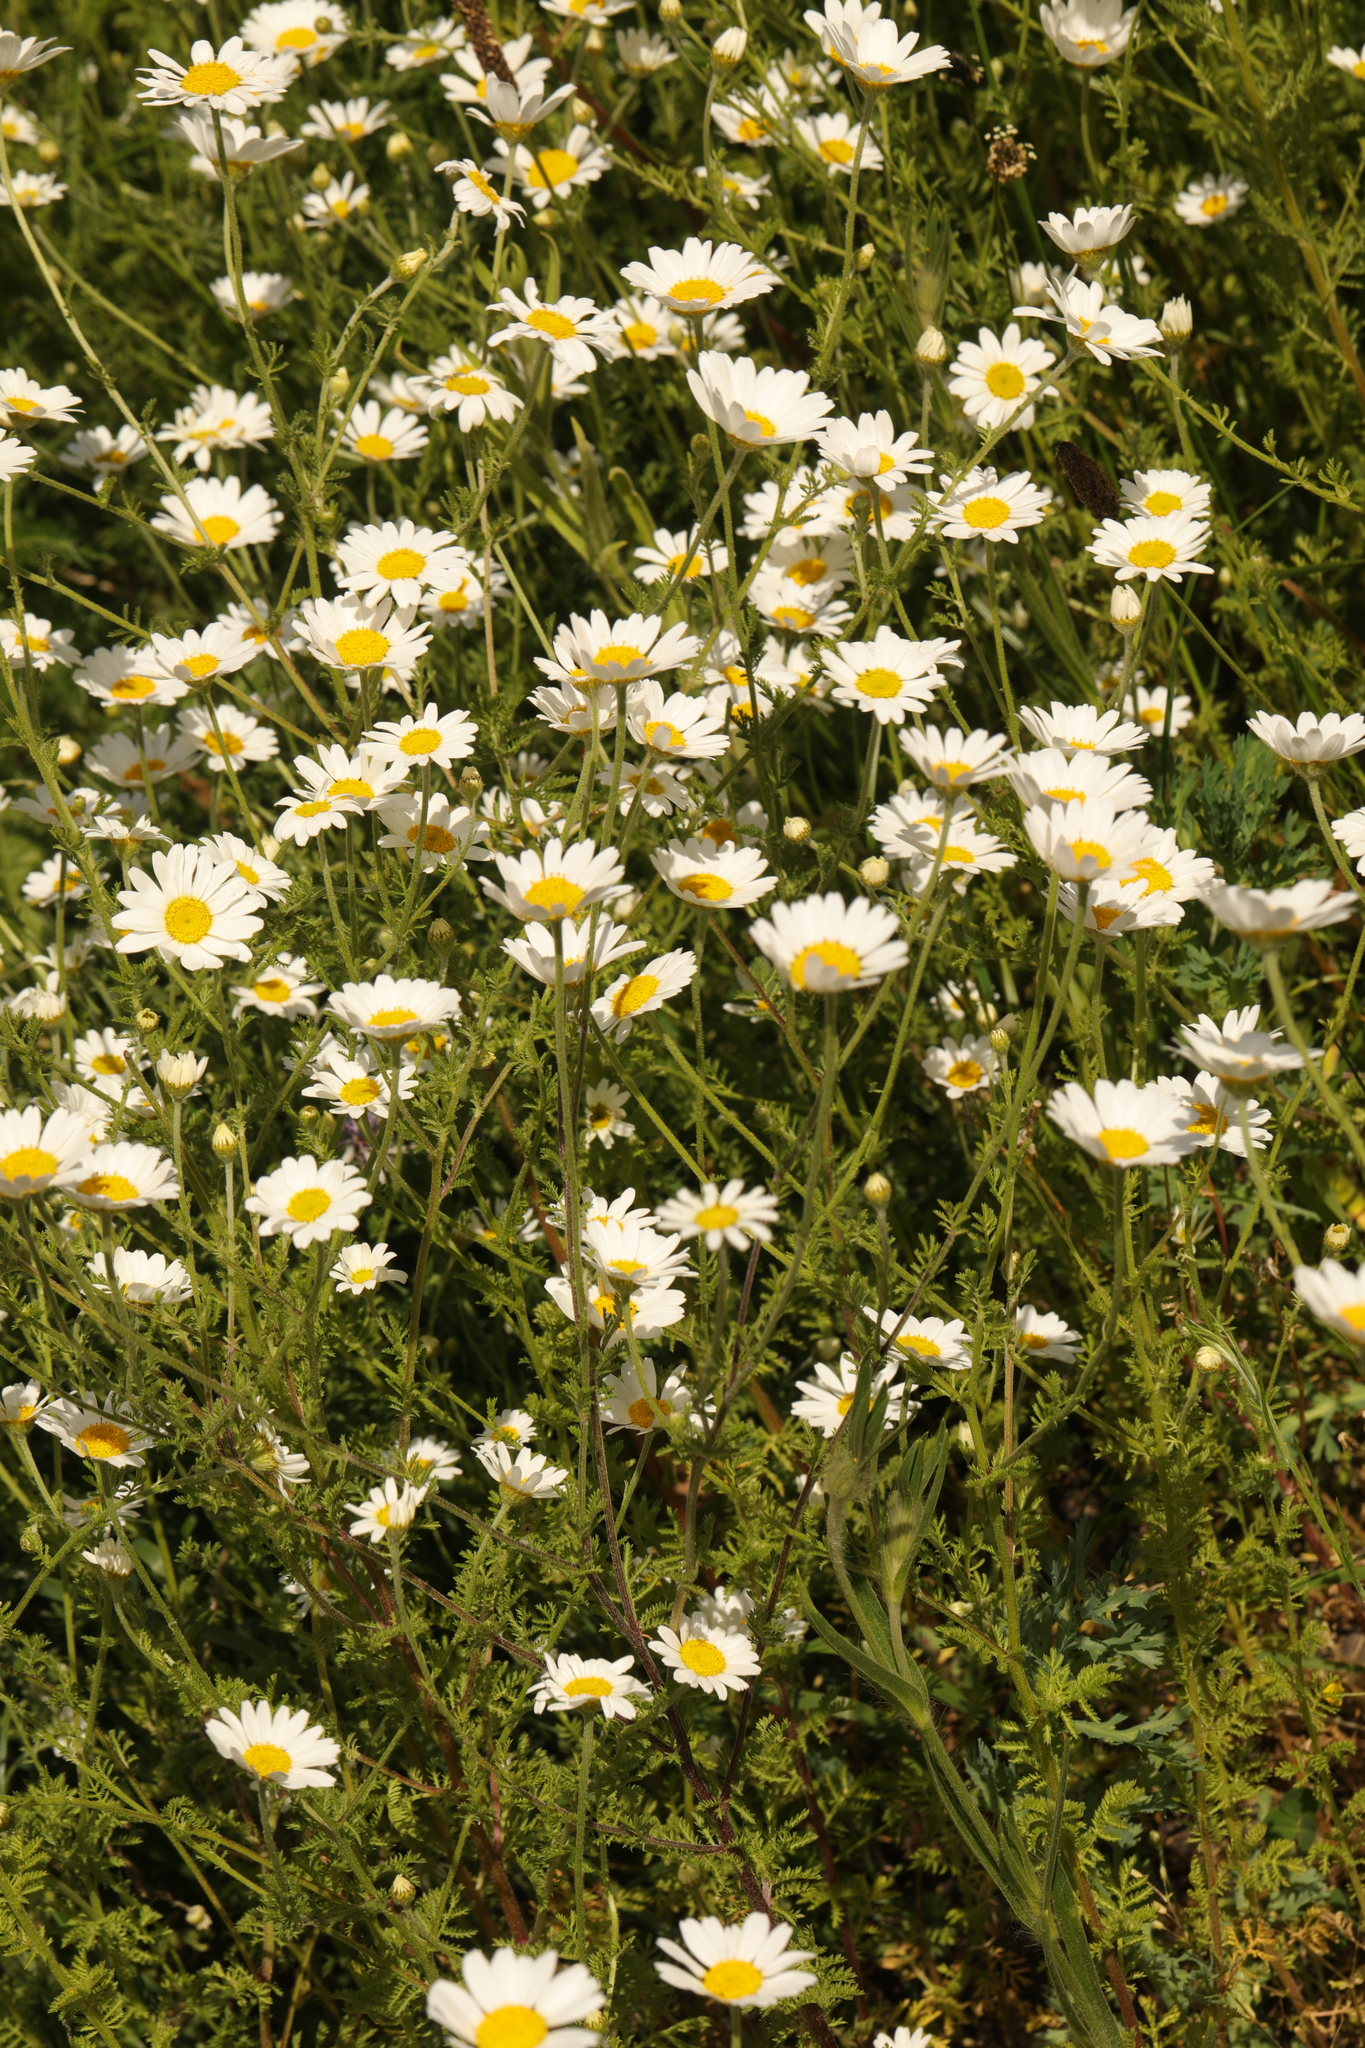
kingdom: Plantae
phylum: Tracheophyta
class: Magnoliopsida
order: Asterales
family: Asteraceae
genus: Leucanthemum
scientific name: Leucanthemum vulgare
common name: Oxeye daisy
